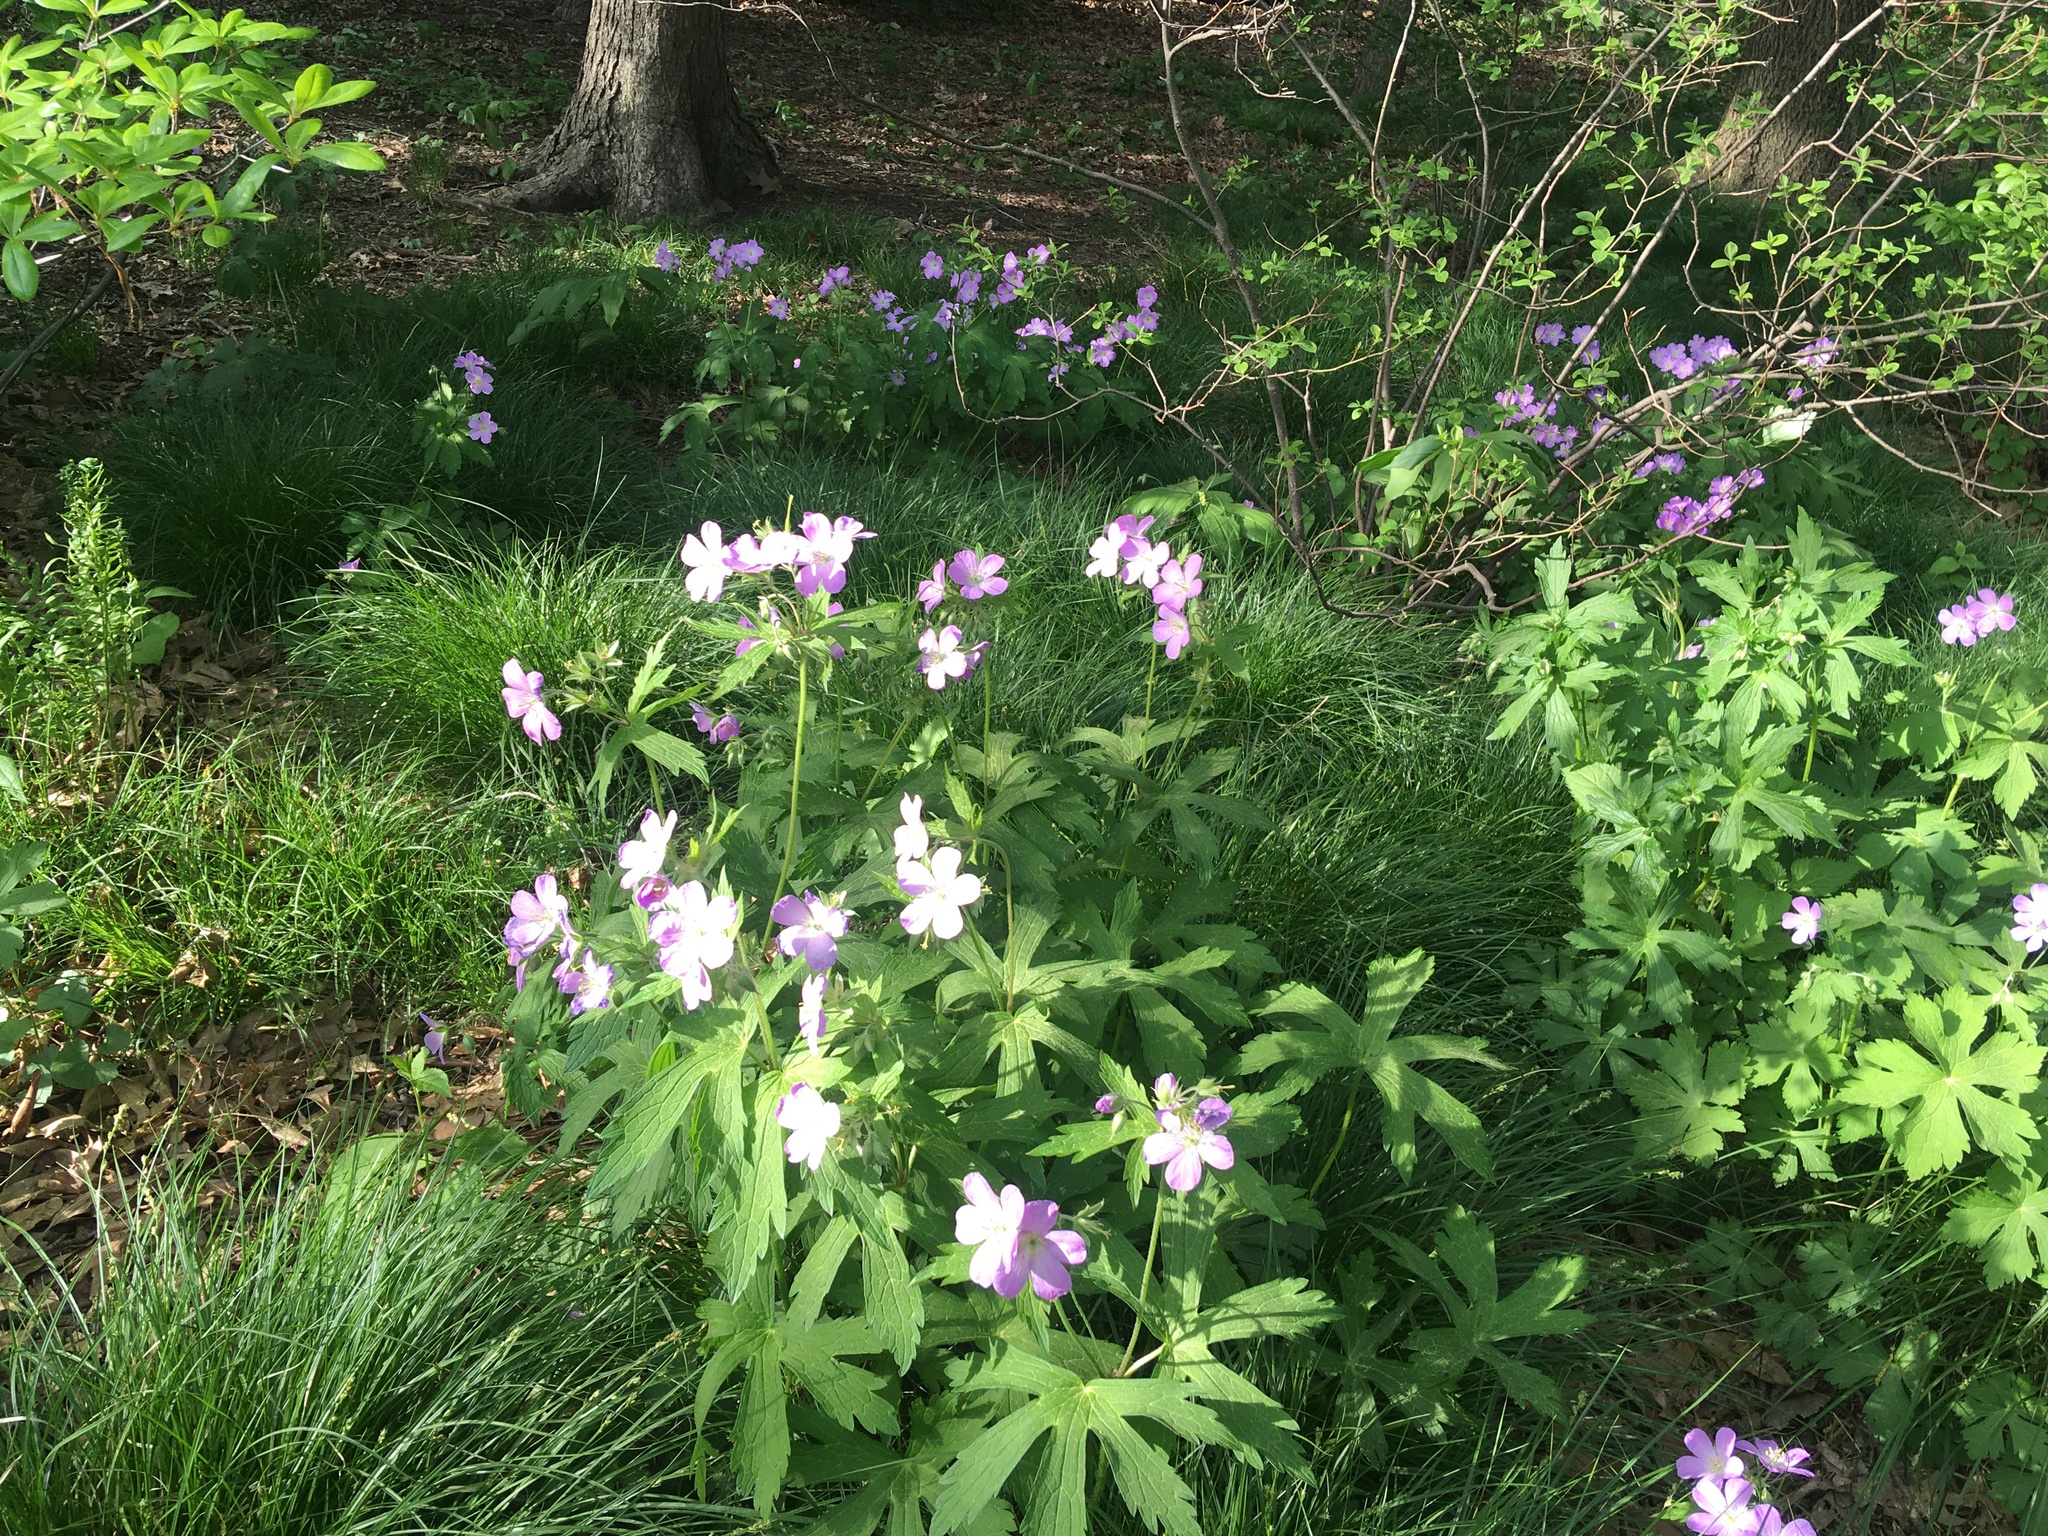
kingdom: Plantae
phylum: Tracheophyta
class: Magnoliopsida
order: Geraniales
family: Geraniaceae
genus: Geranium
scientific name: Geranium maculatum
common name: Spotted geranium
